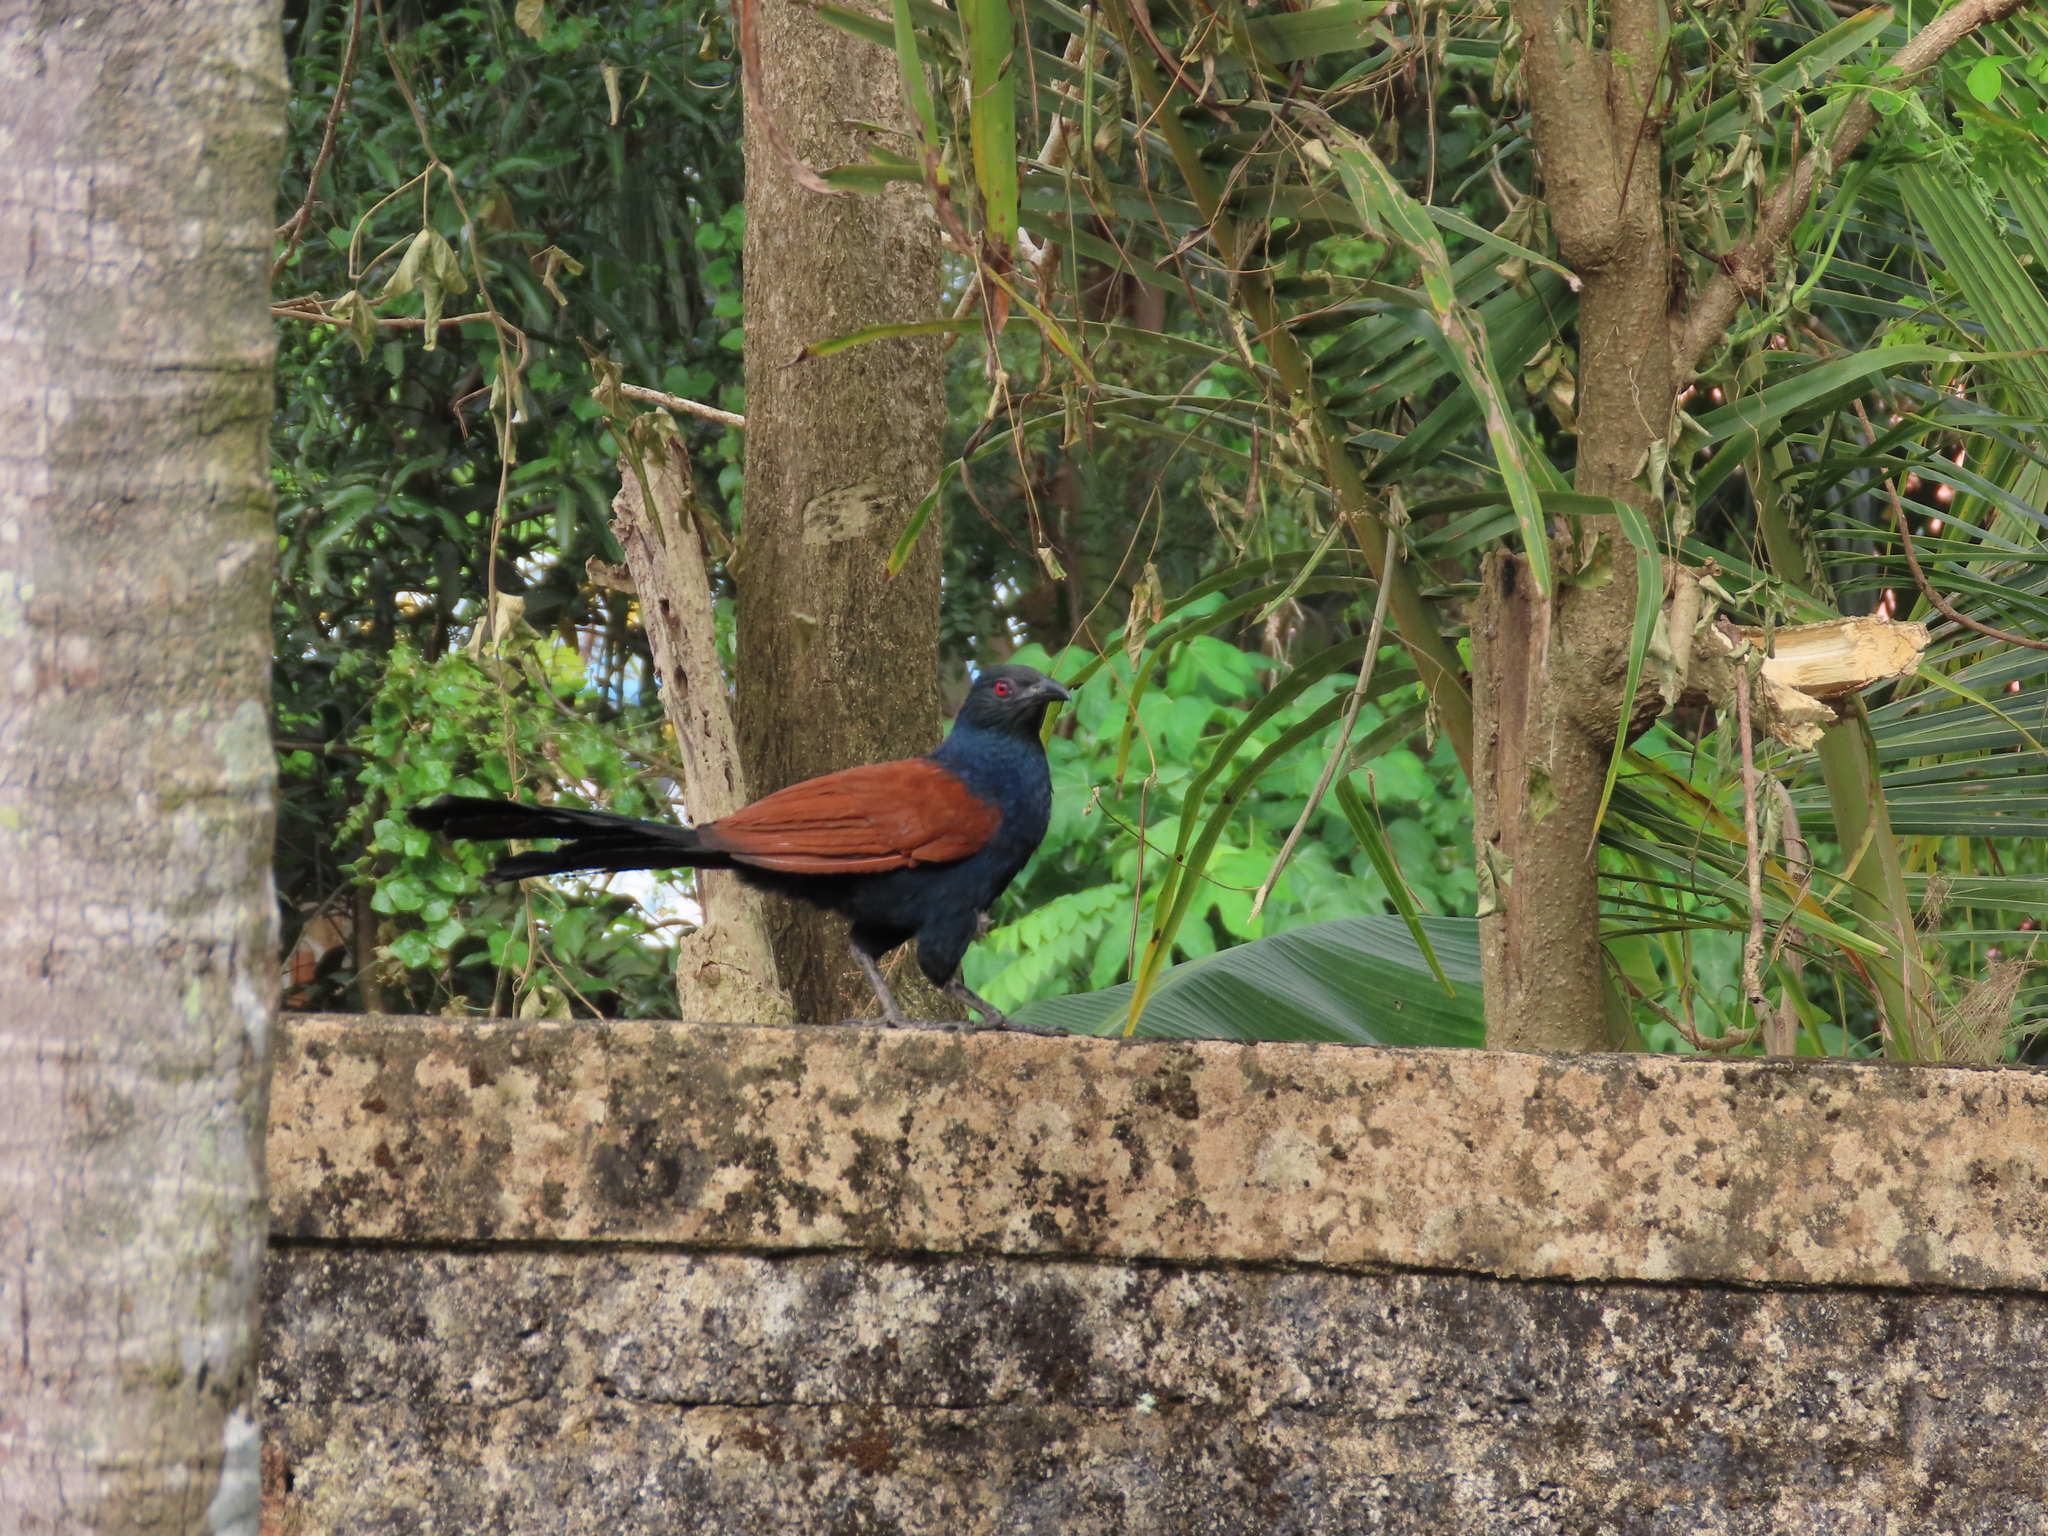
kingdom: Animalia
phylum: Chordata
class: Aves
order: Cuculiformes
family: Cuculidae
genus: Centropus
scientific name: Centropus sinensis
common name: Greater coucal
